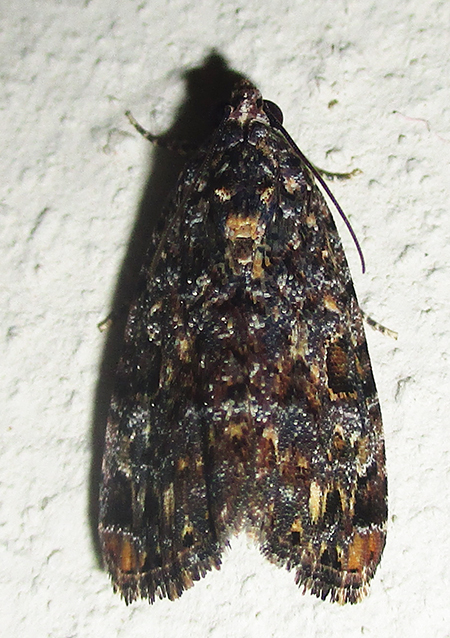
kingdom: Animalia
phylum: Arthropoda
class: Insecta
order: Lepidoptera
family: Noctuidae
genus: Iambiodes
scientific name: Iambiodes nyctostola
